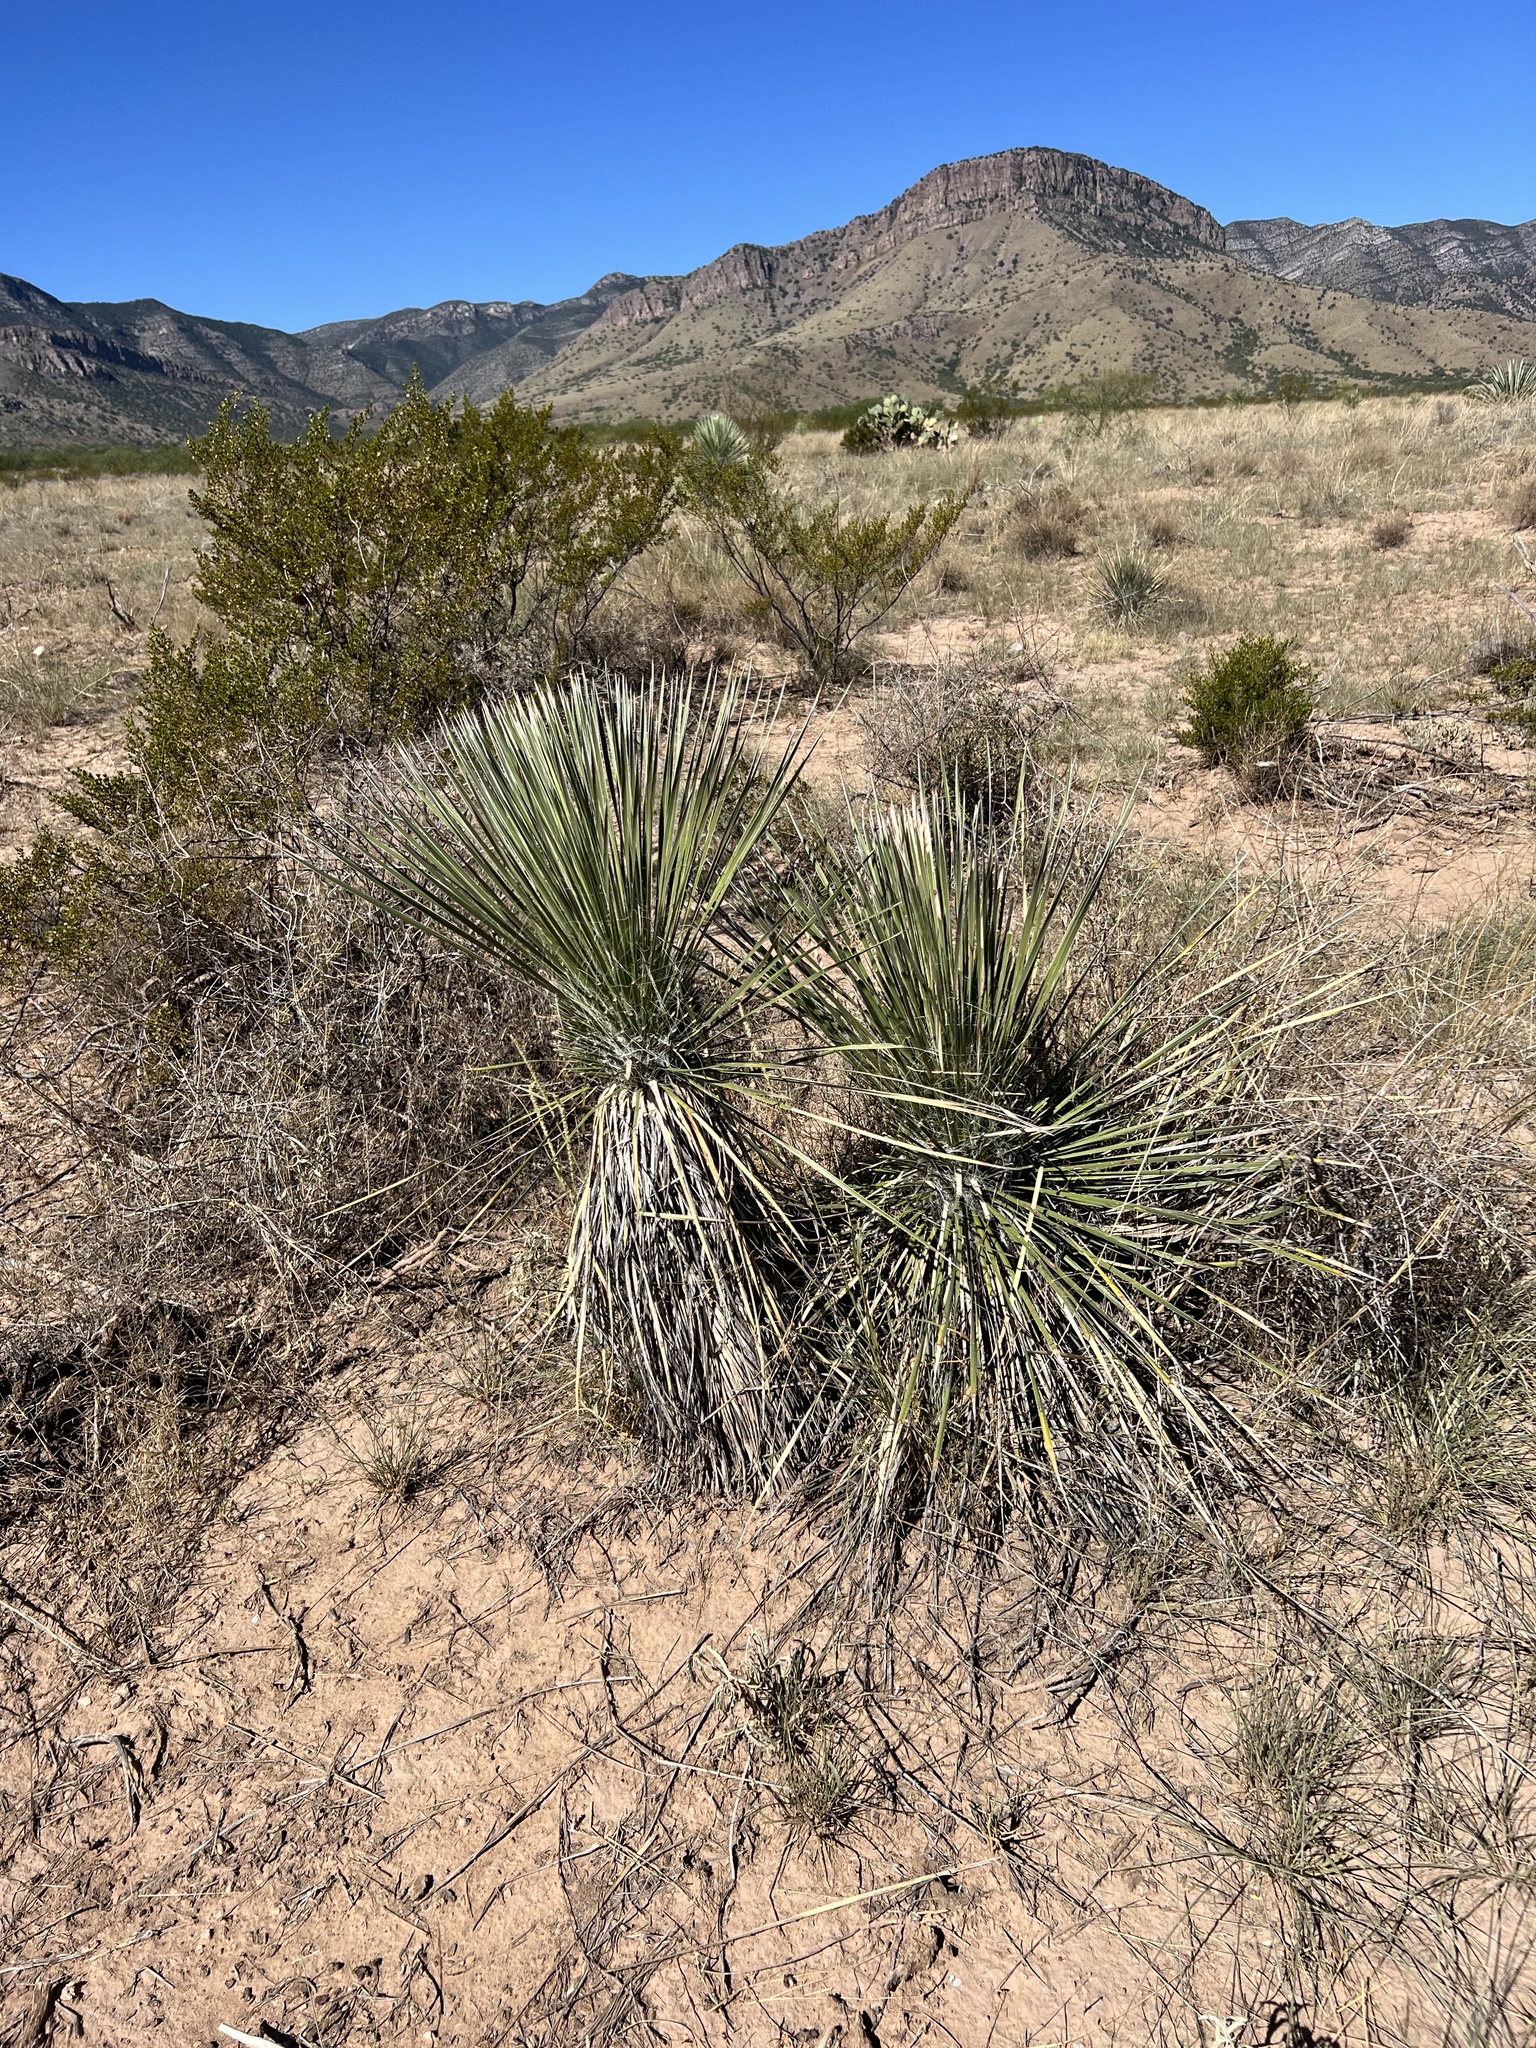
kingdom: Plantae
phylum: Tracheophyta
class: Liliopsida
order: Asparagales
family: Asparagaceae
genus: Yucca
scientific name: Yucca elata
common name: Palmella
